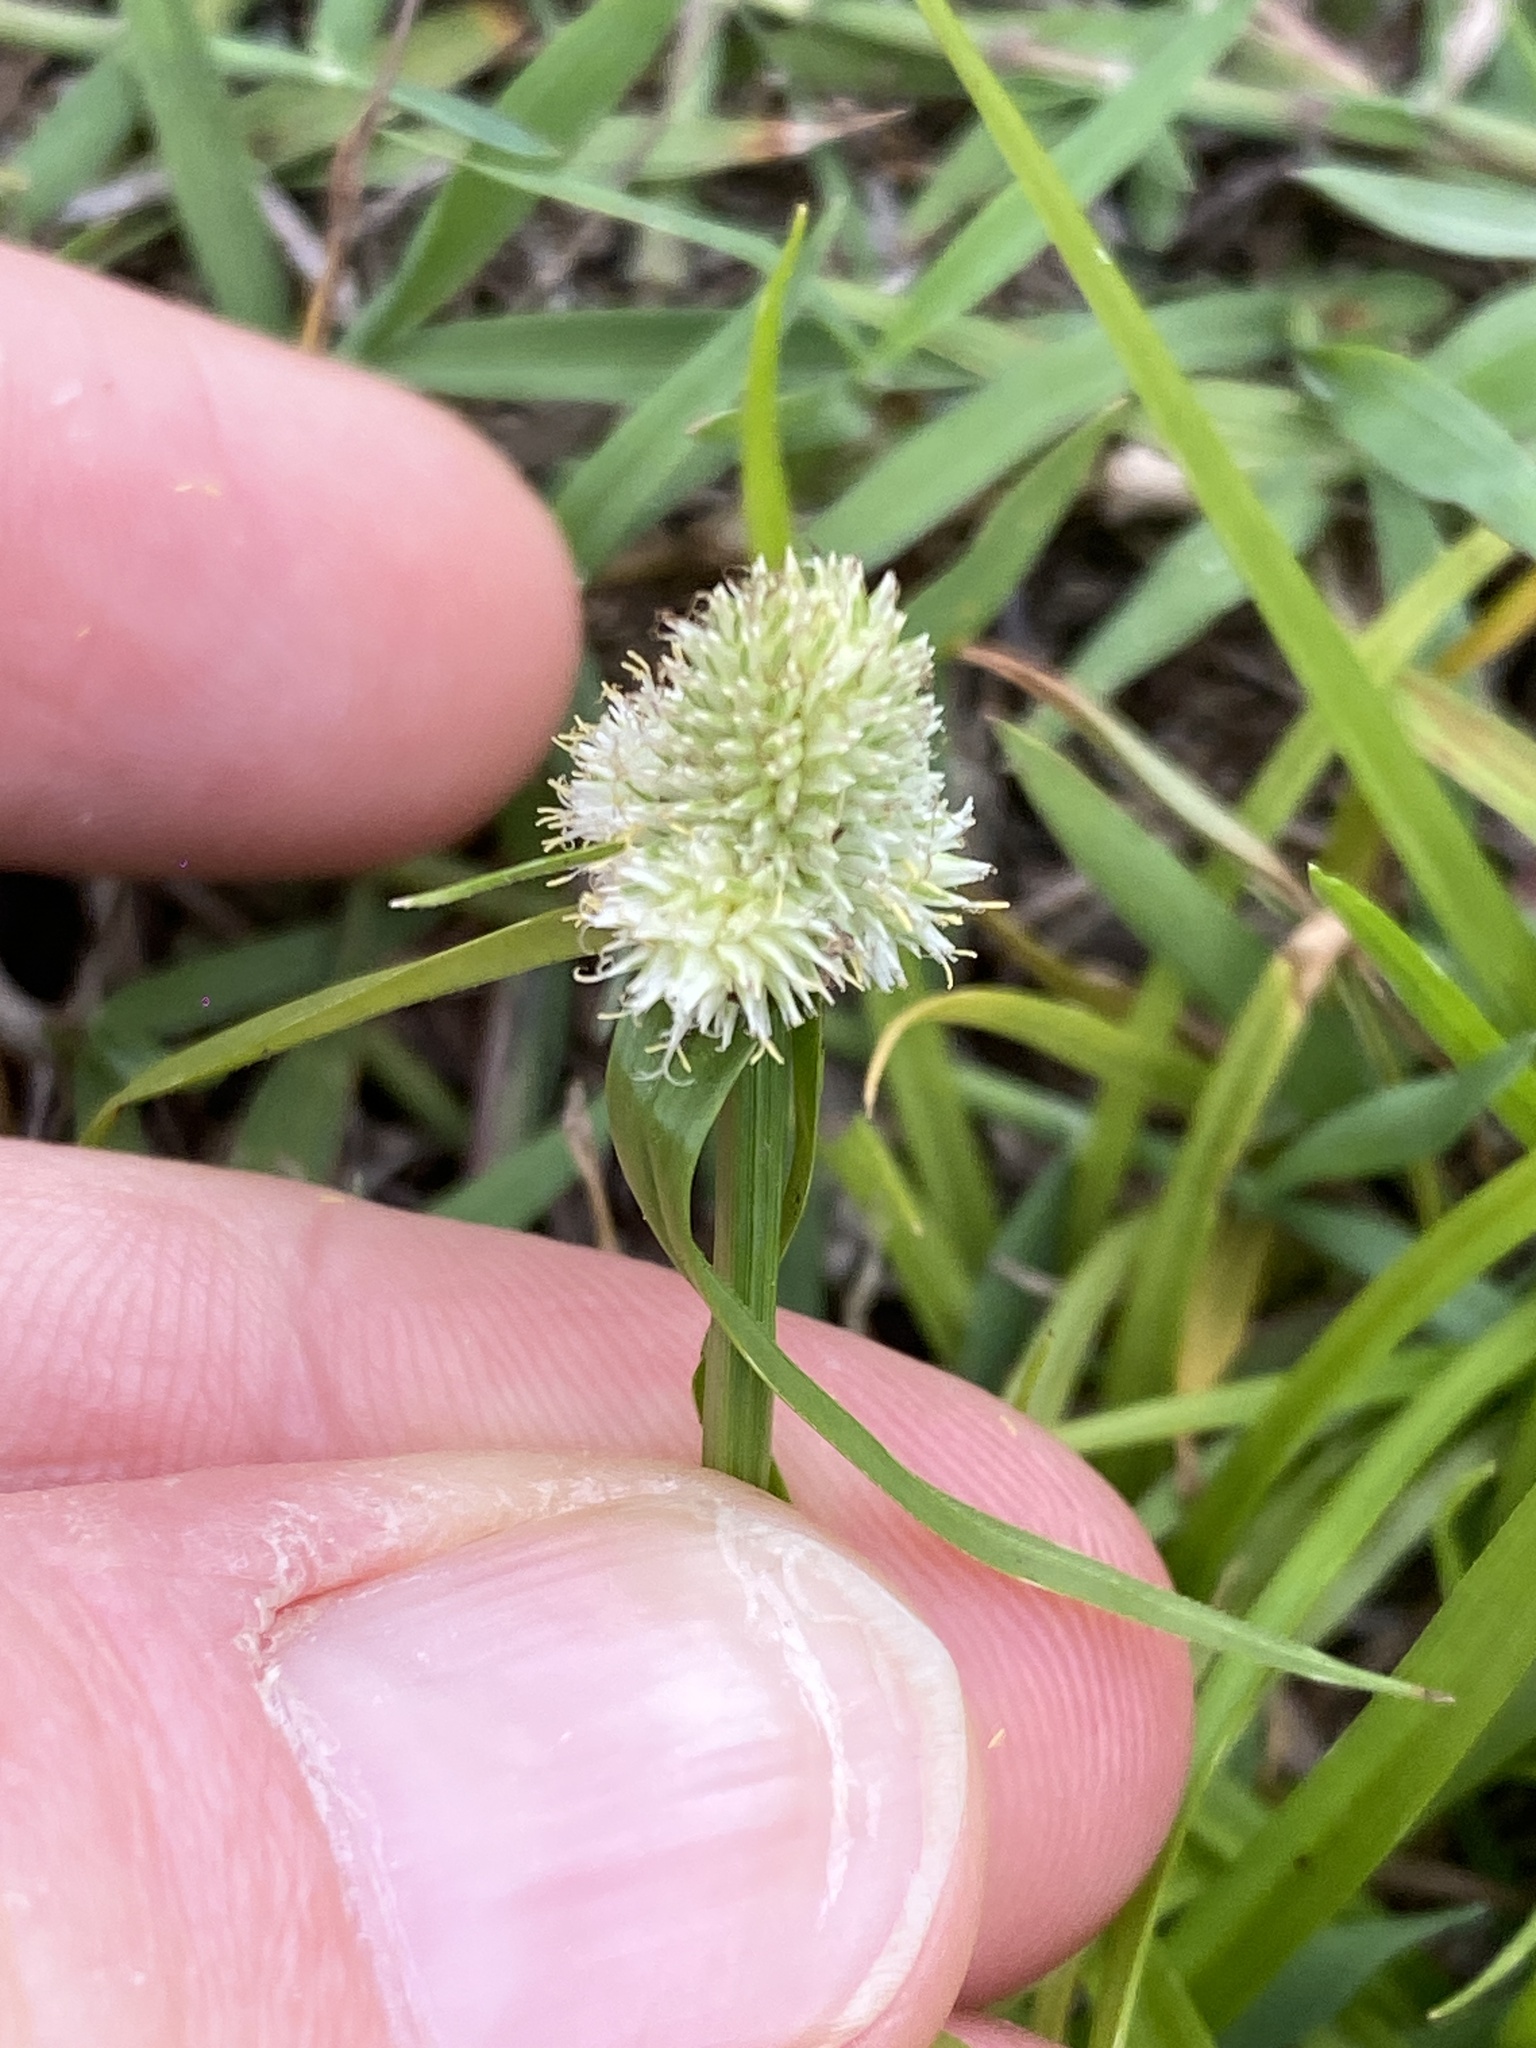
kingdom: Plantae
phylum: Tracheophyta
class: Liliopsida
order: Poales
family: Cyperaceae
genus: Cyperus
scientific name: Cyperus sesquiflorus
